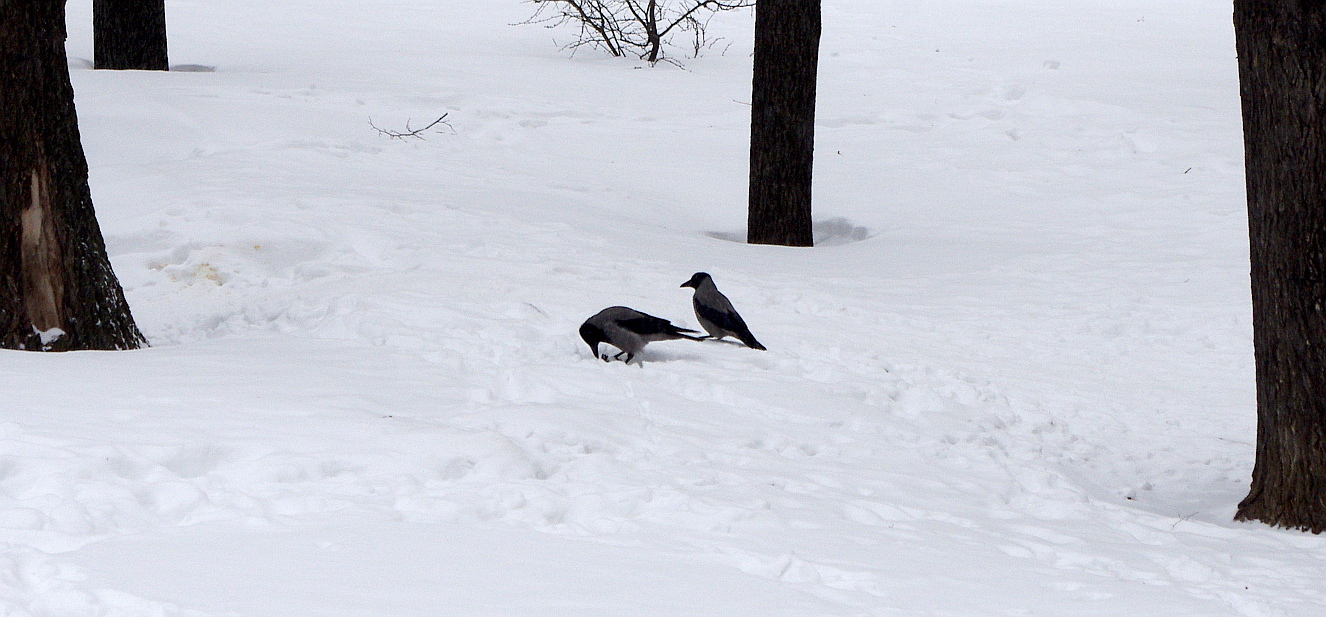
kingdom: Animalia
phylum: Chordata
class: Aves
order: Passeriformes
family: Corvidae
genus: Corvus
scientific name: Corvus cornix
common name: Hooded crow
